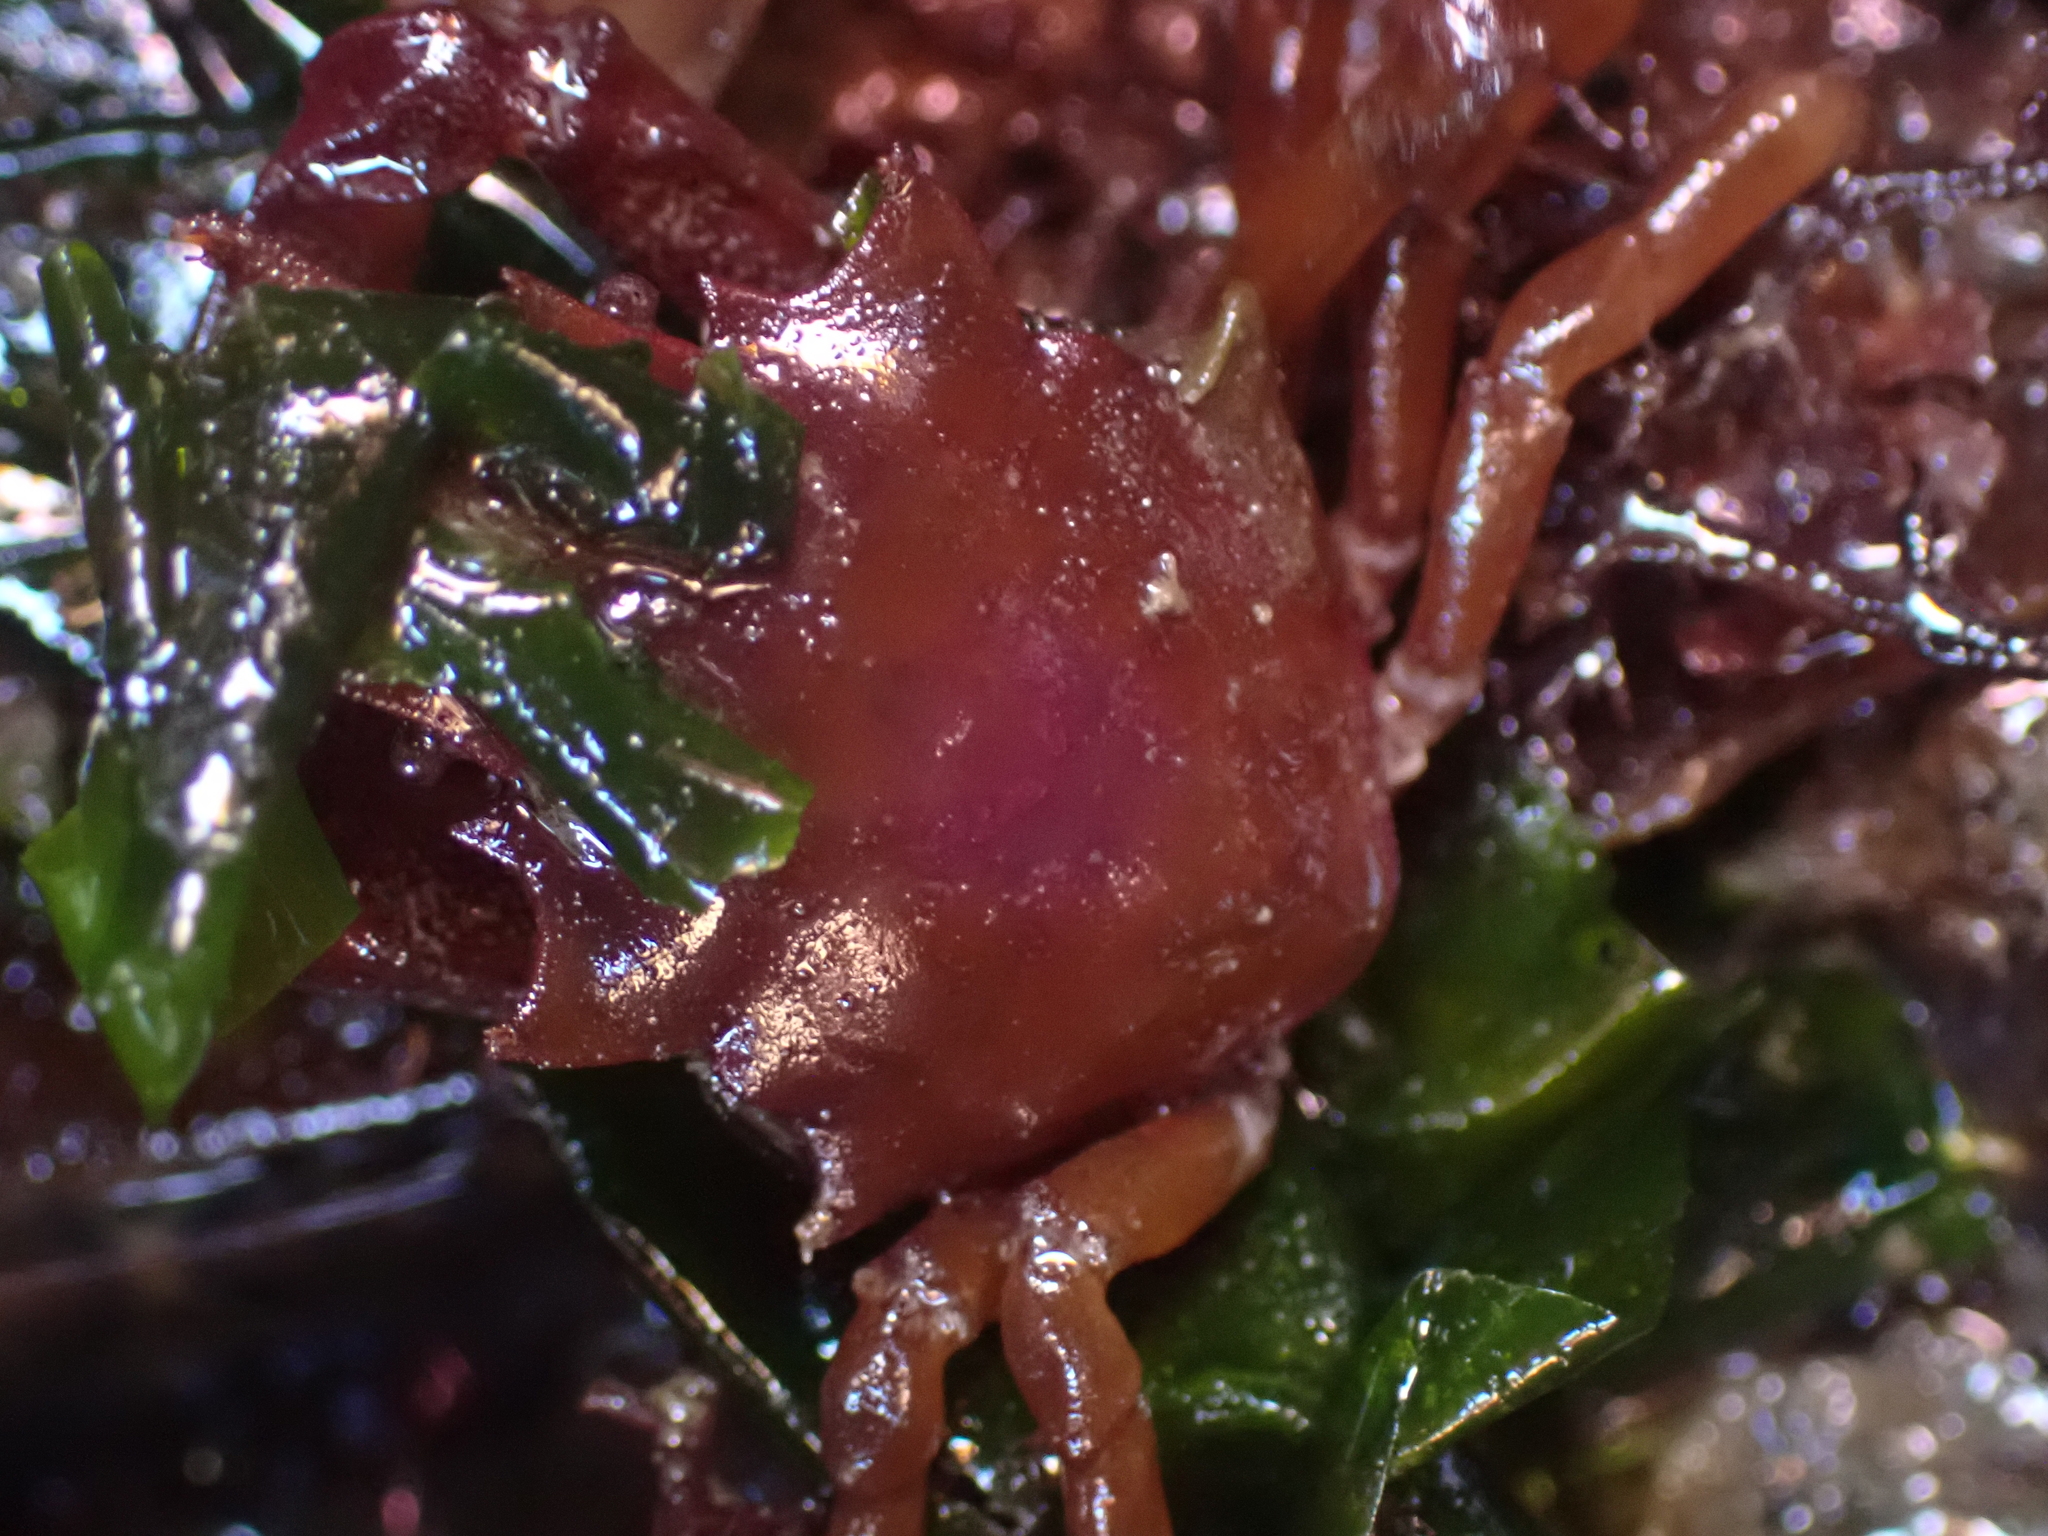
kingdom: Animalia
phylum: Arthropoda
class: Malacostraca
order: Decapoda
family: Epialtidae
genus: Pugettia
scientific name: Pugettia gracilis
